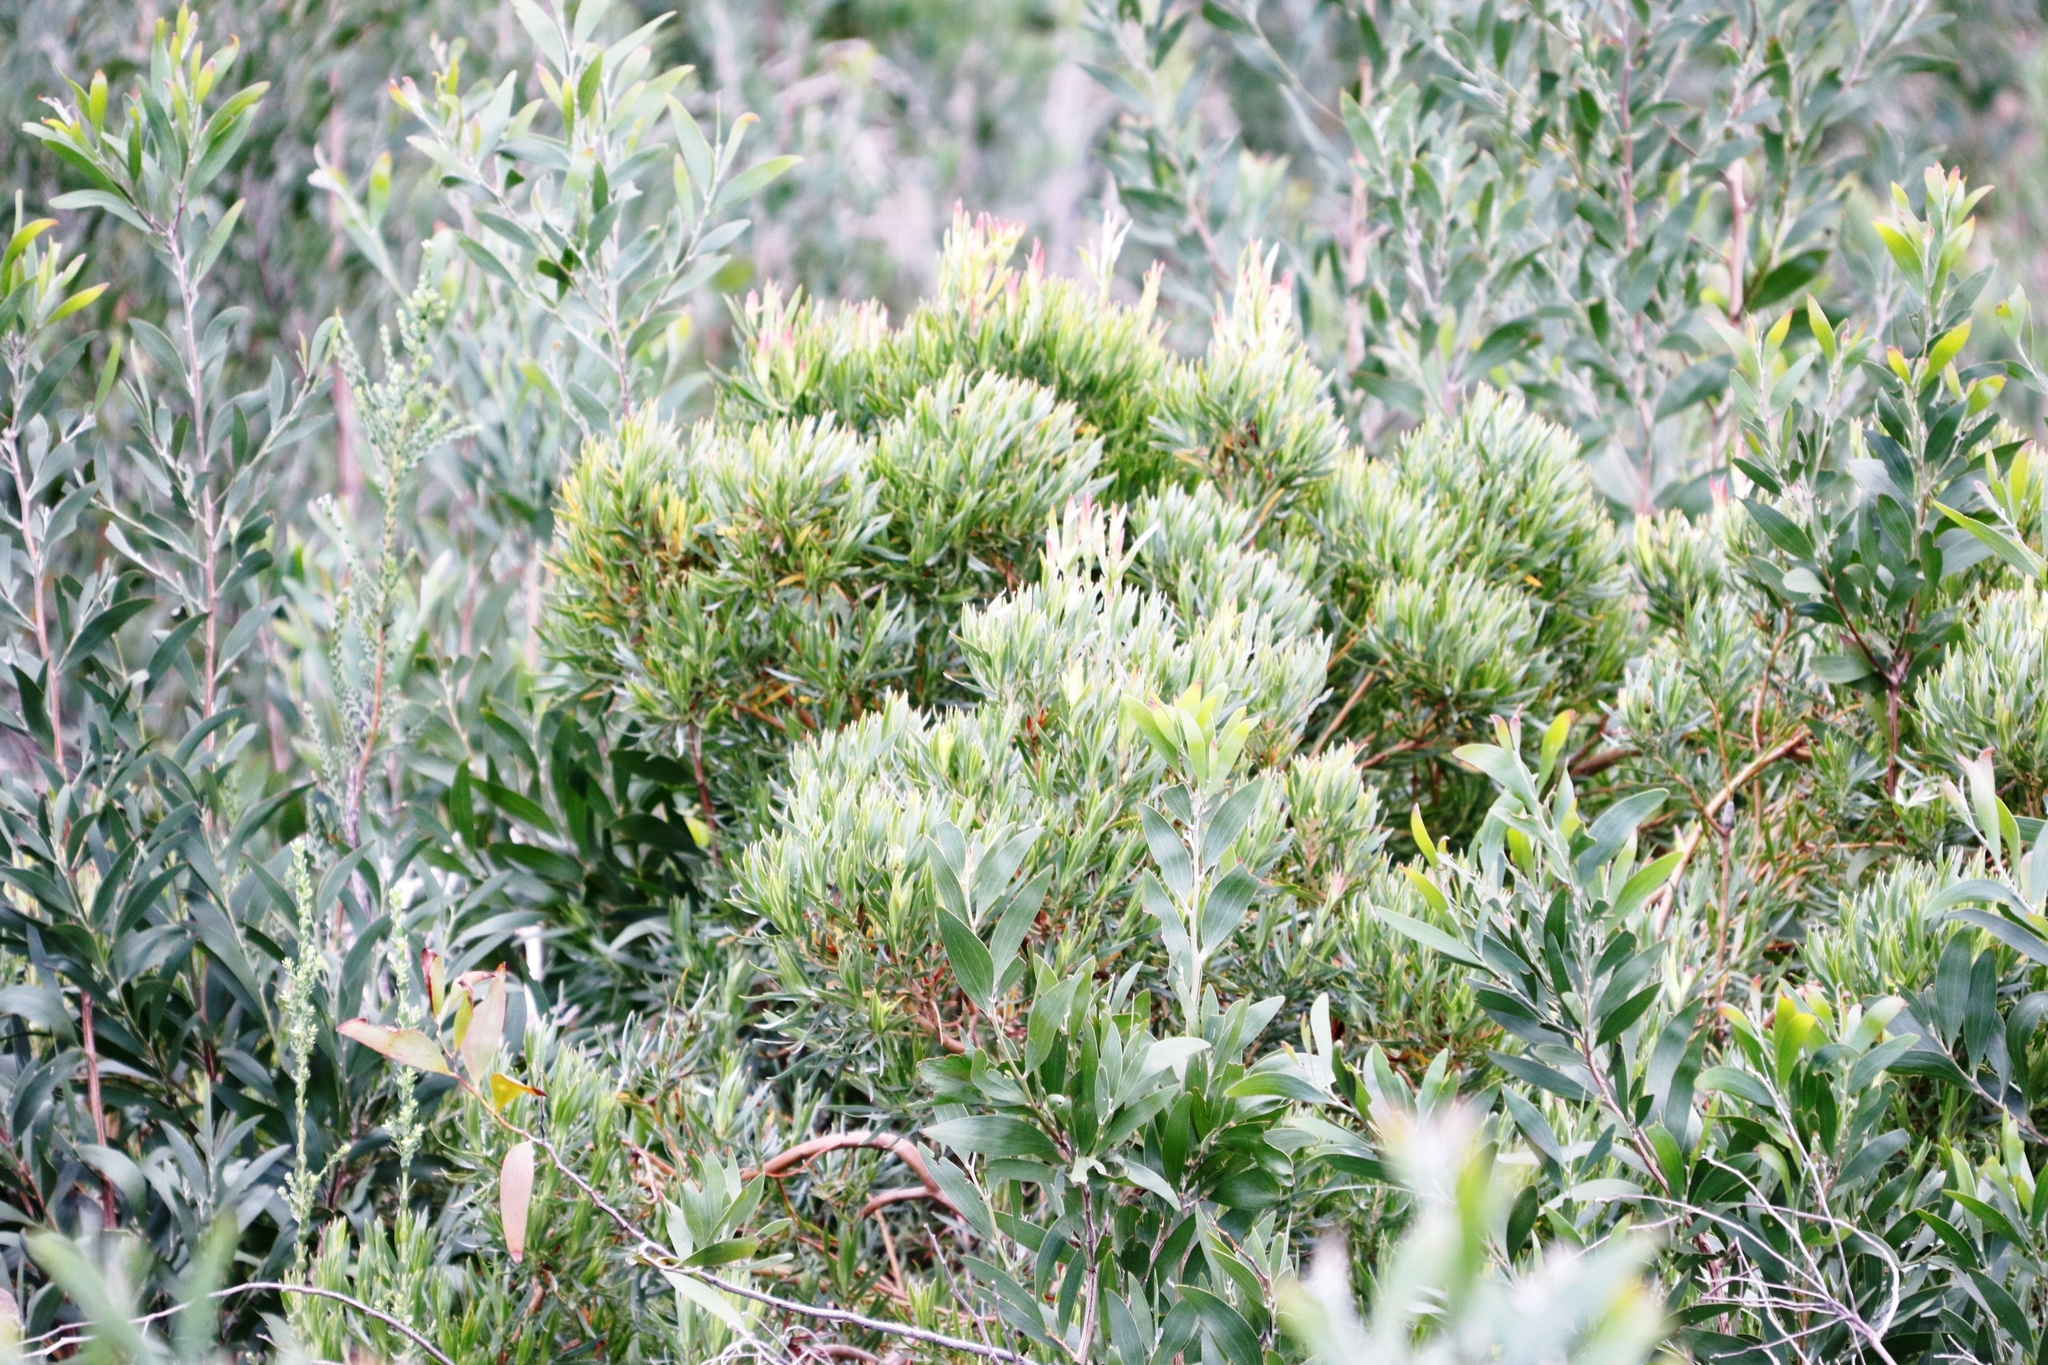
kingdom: Plantae
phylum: Tracheophyta
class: Magnoliopsida
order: Proteales
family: Proteaceae
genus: Leucadendron
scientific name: Leucadendron xanthoconus
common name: Sickle-leaf conebush
